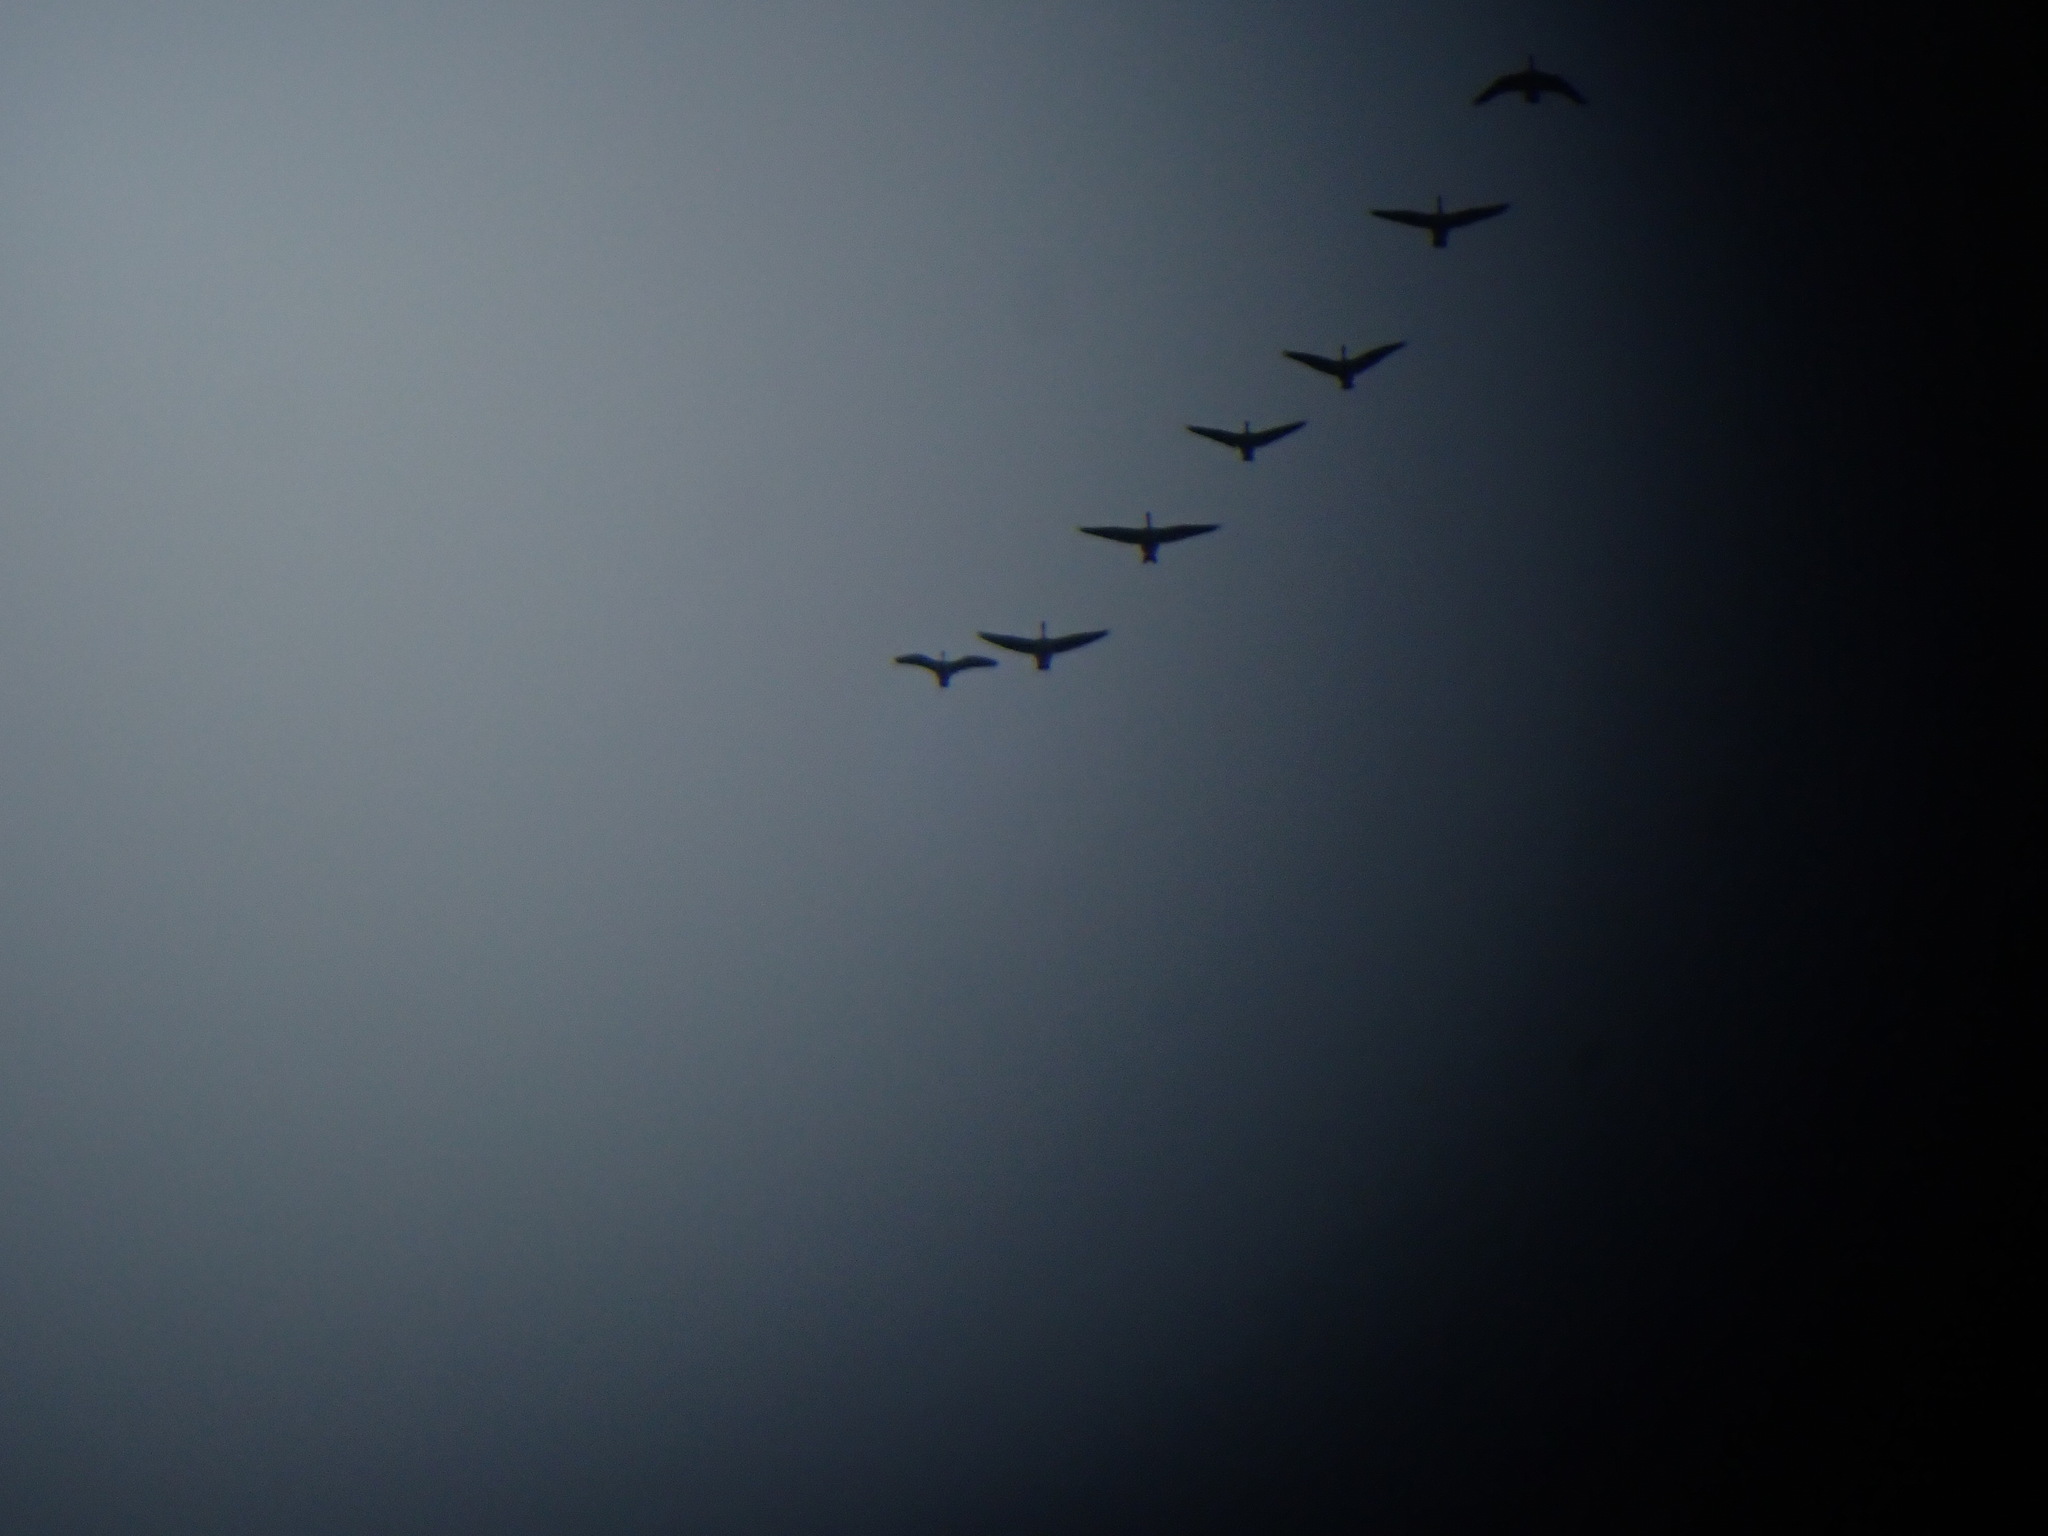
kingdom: Animalia
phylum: Chordata
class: Aves
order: Anseriformes
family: Anatidae
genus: Branta
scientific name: Branta canadensis
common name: Canada goose
